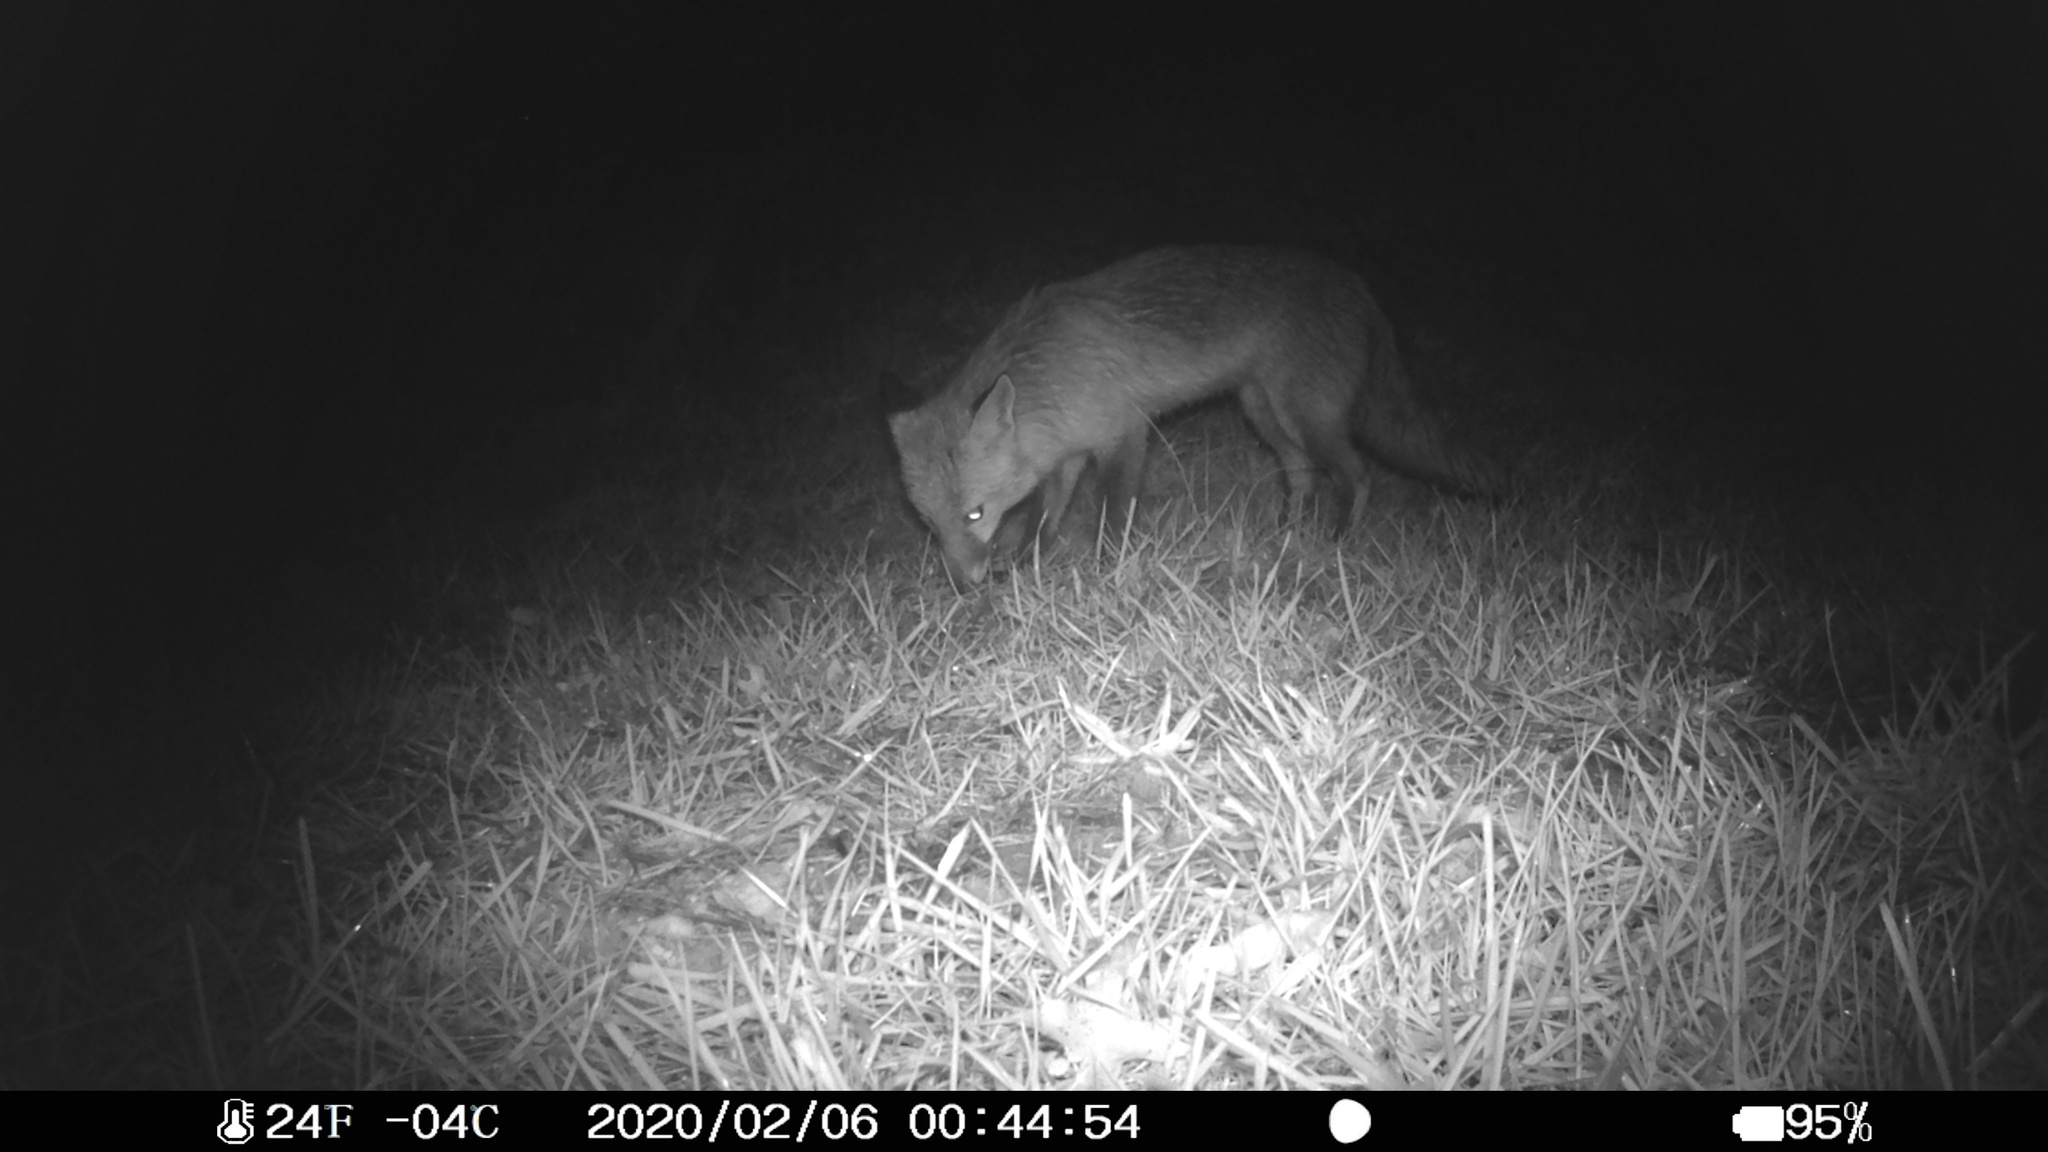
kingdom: Animalia
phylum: Chordata
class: Mammalia
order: Carnivora
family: Canidae
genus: Vulpes
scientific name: Vulpes vulpes
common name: Red fox
